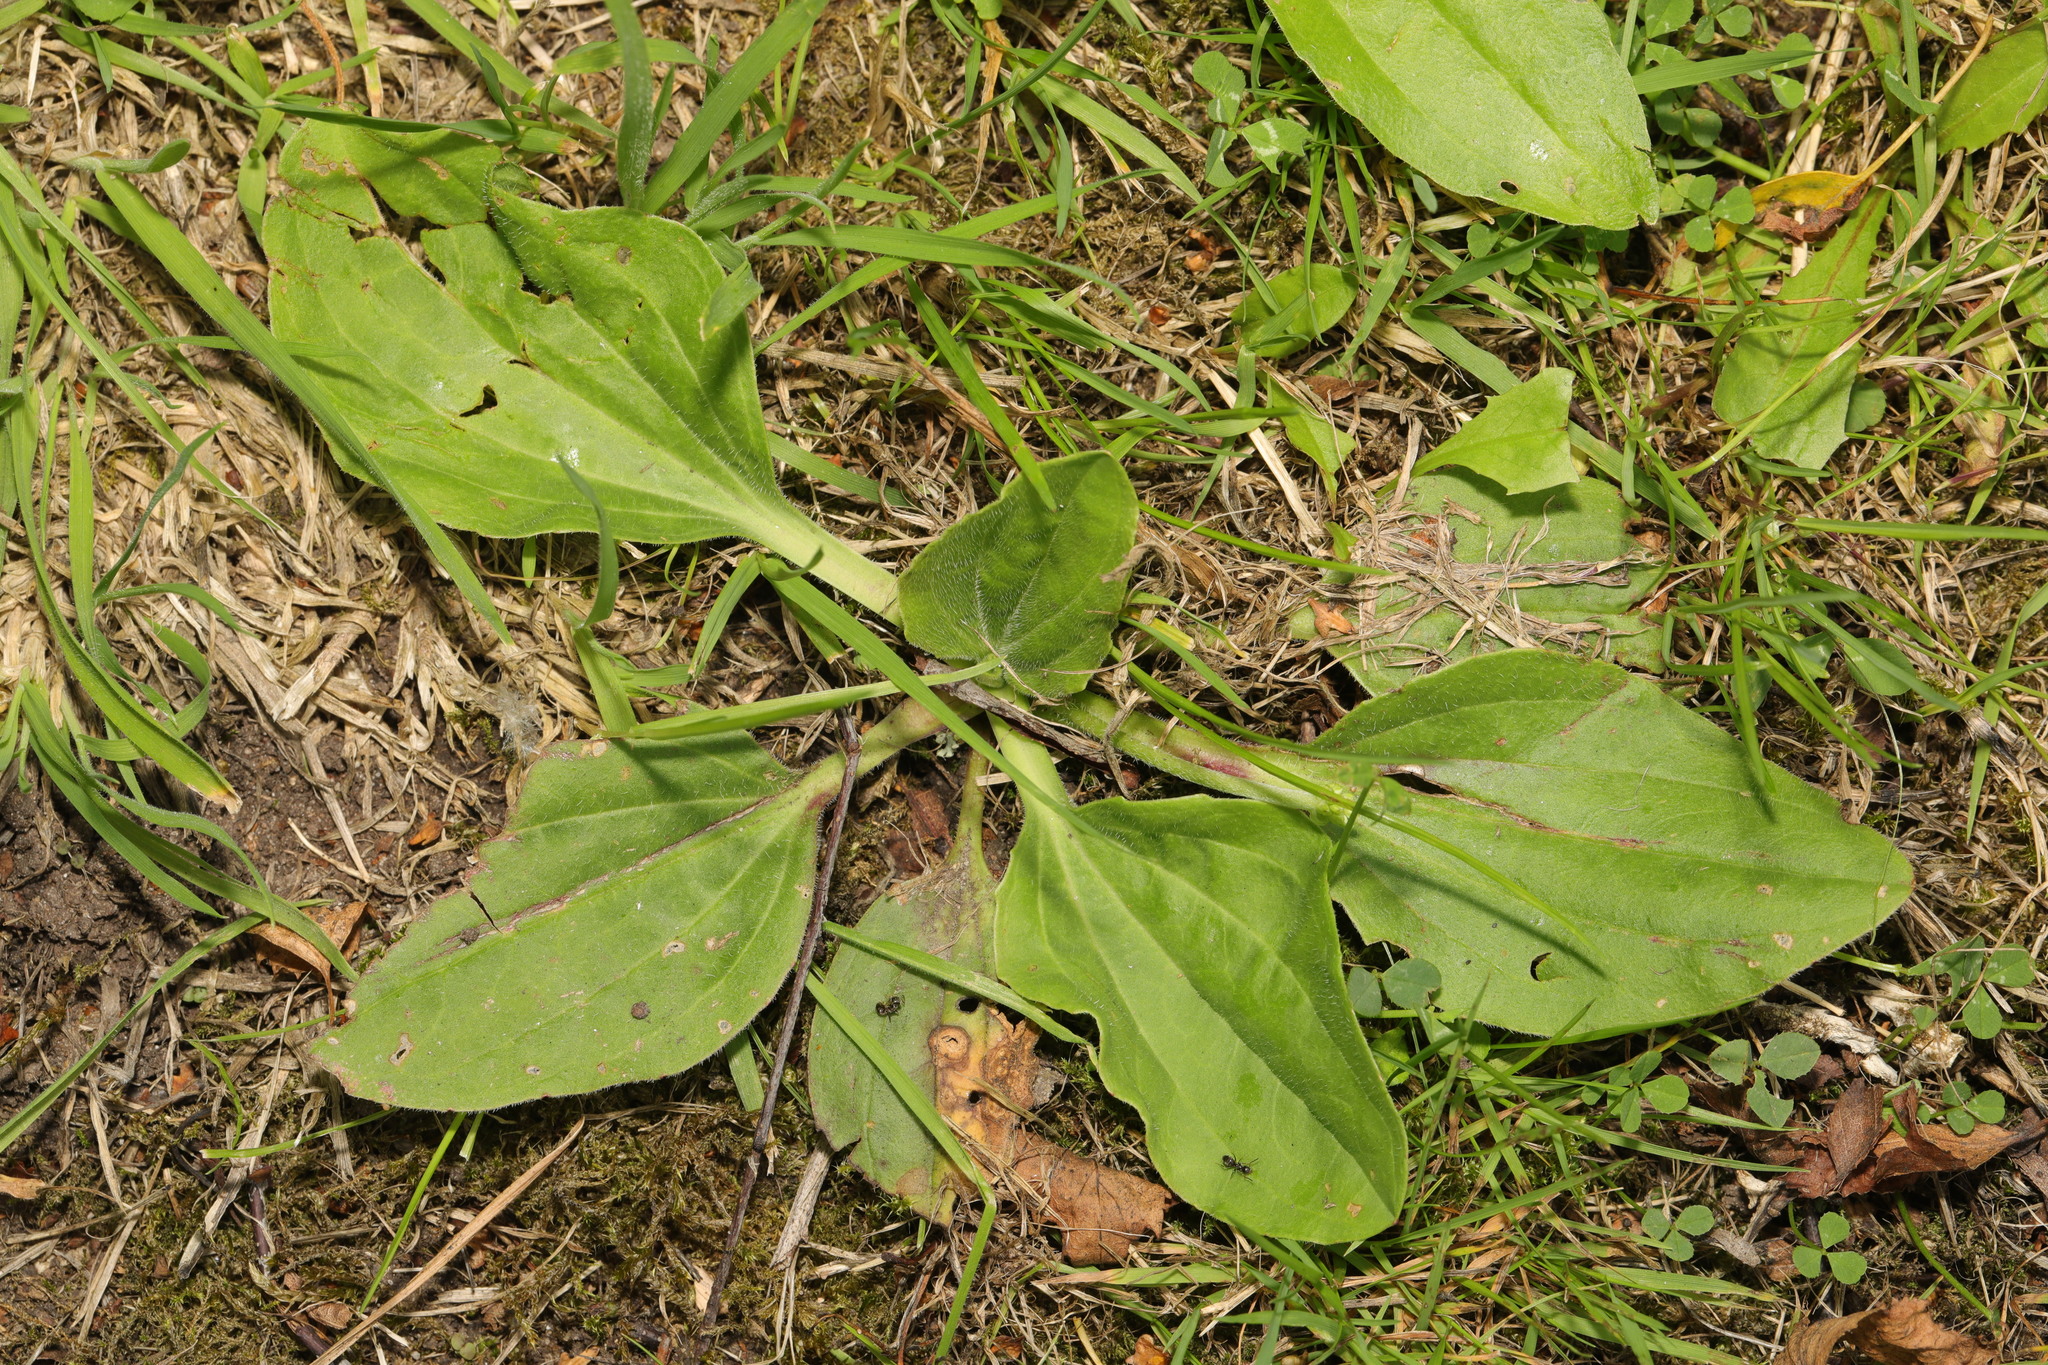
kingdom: Plantae
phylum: Tracheophyta
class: Magnoliopsida
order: Lamiales
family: Plantaginaceae
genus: Plantago
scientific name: Plantago major
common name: Common plantain
